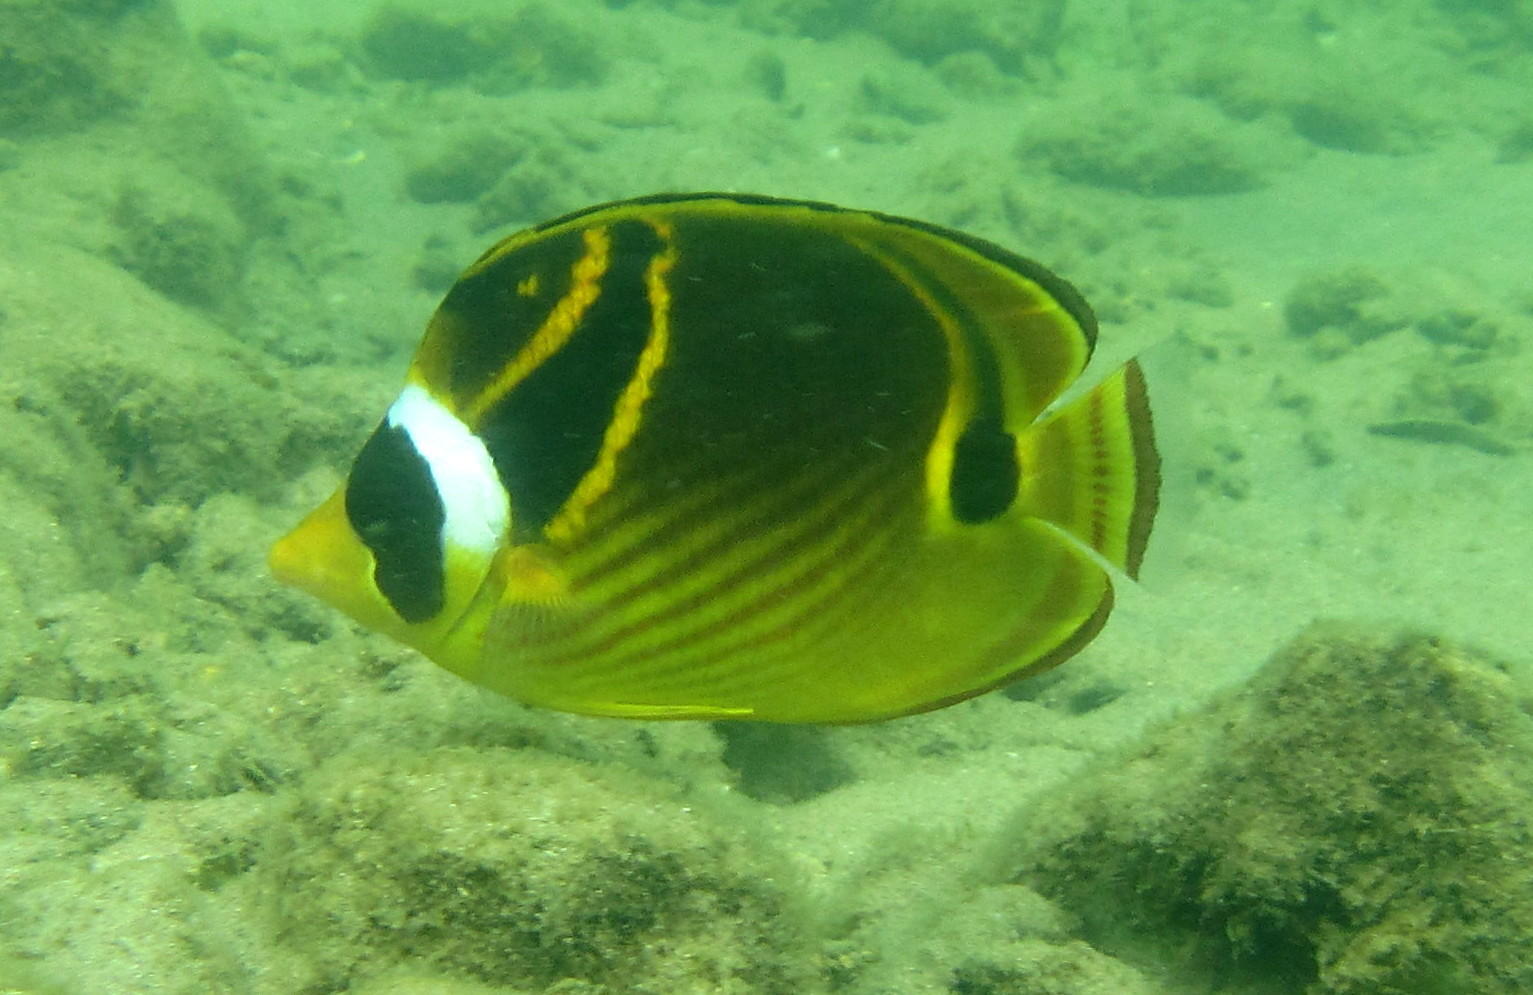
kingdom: Animalia
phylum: Chordata
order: Perciformes
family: Chaetodontidae
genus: Chaetodon
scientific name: Chaetodon lunula
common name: Raccoon butterflyfish
